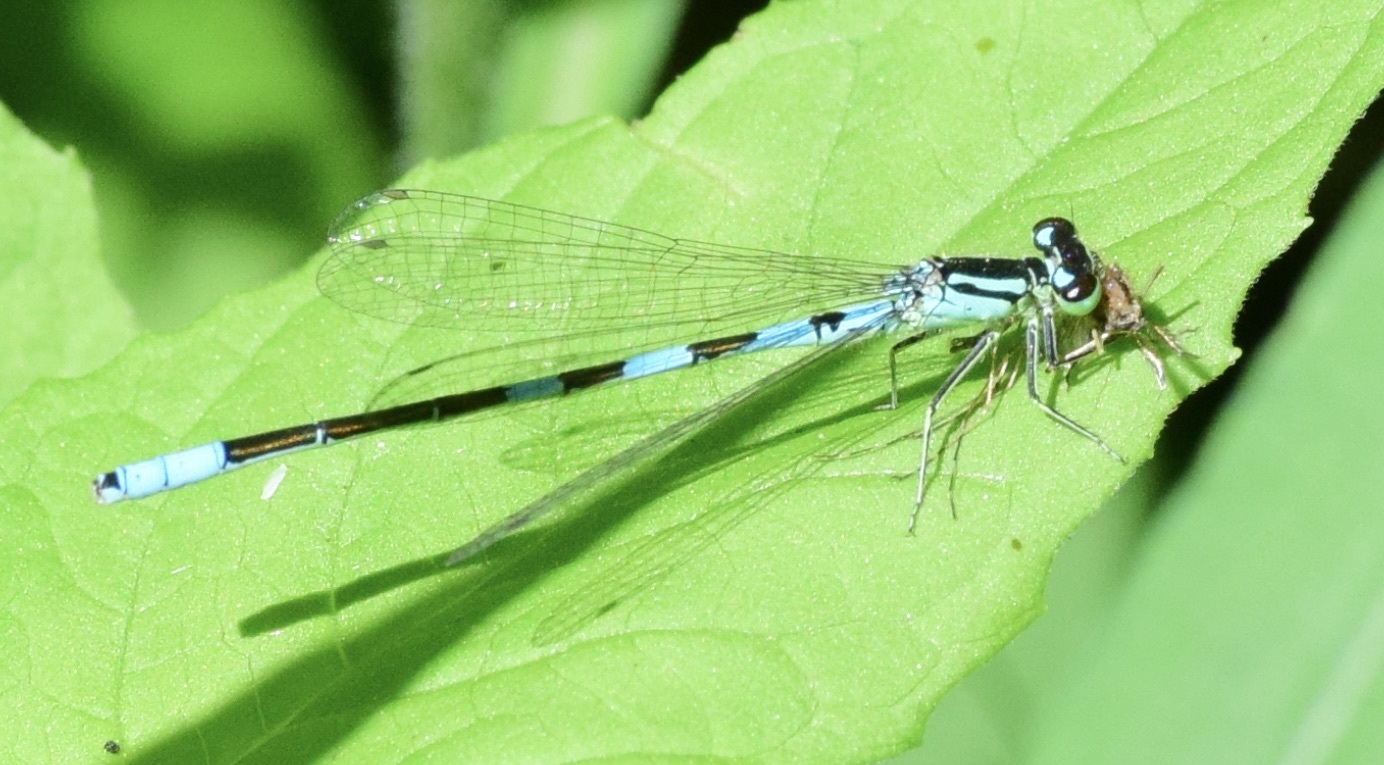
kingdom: Animalia
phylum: Arthropoda
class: Insecta
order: Odonata
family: Coenagrionidae
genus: Coenagrion
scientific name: Coenagrion resolutum
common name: Taiga bluet
